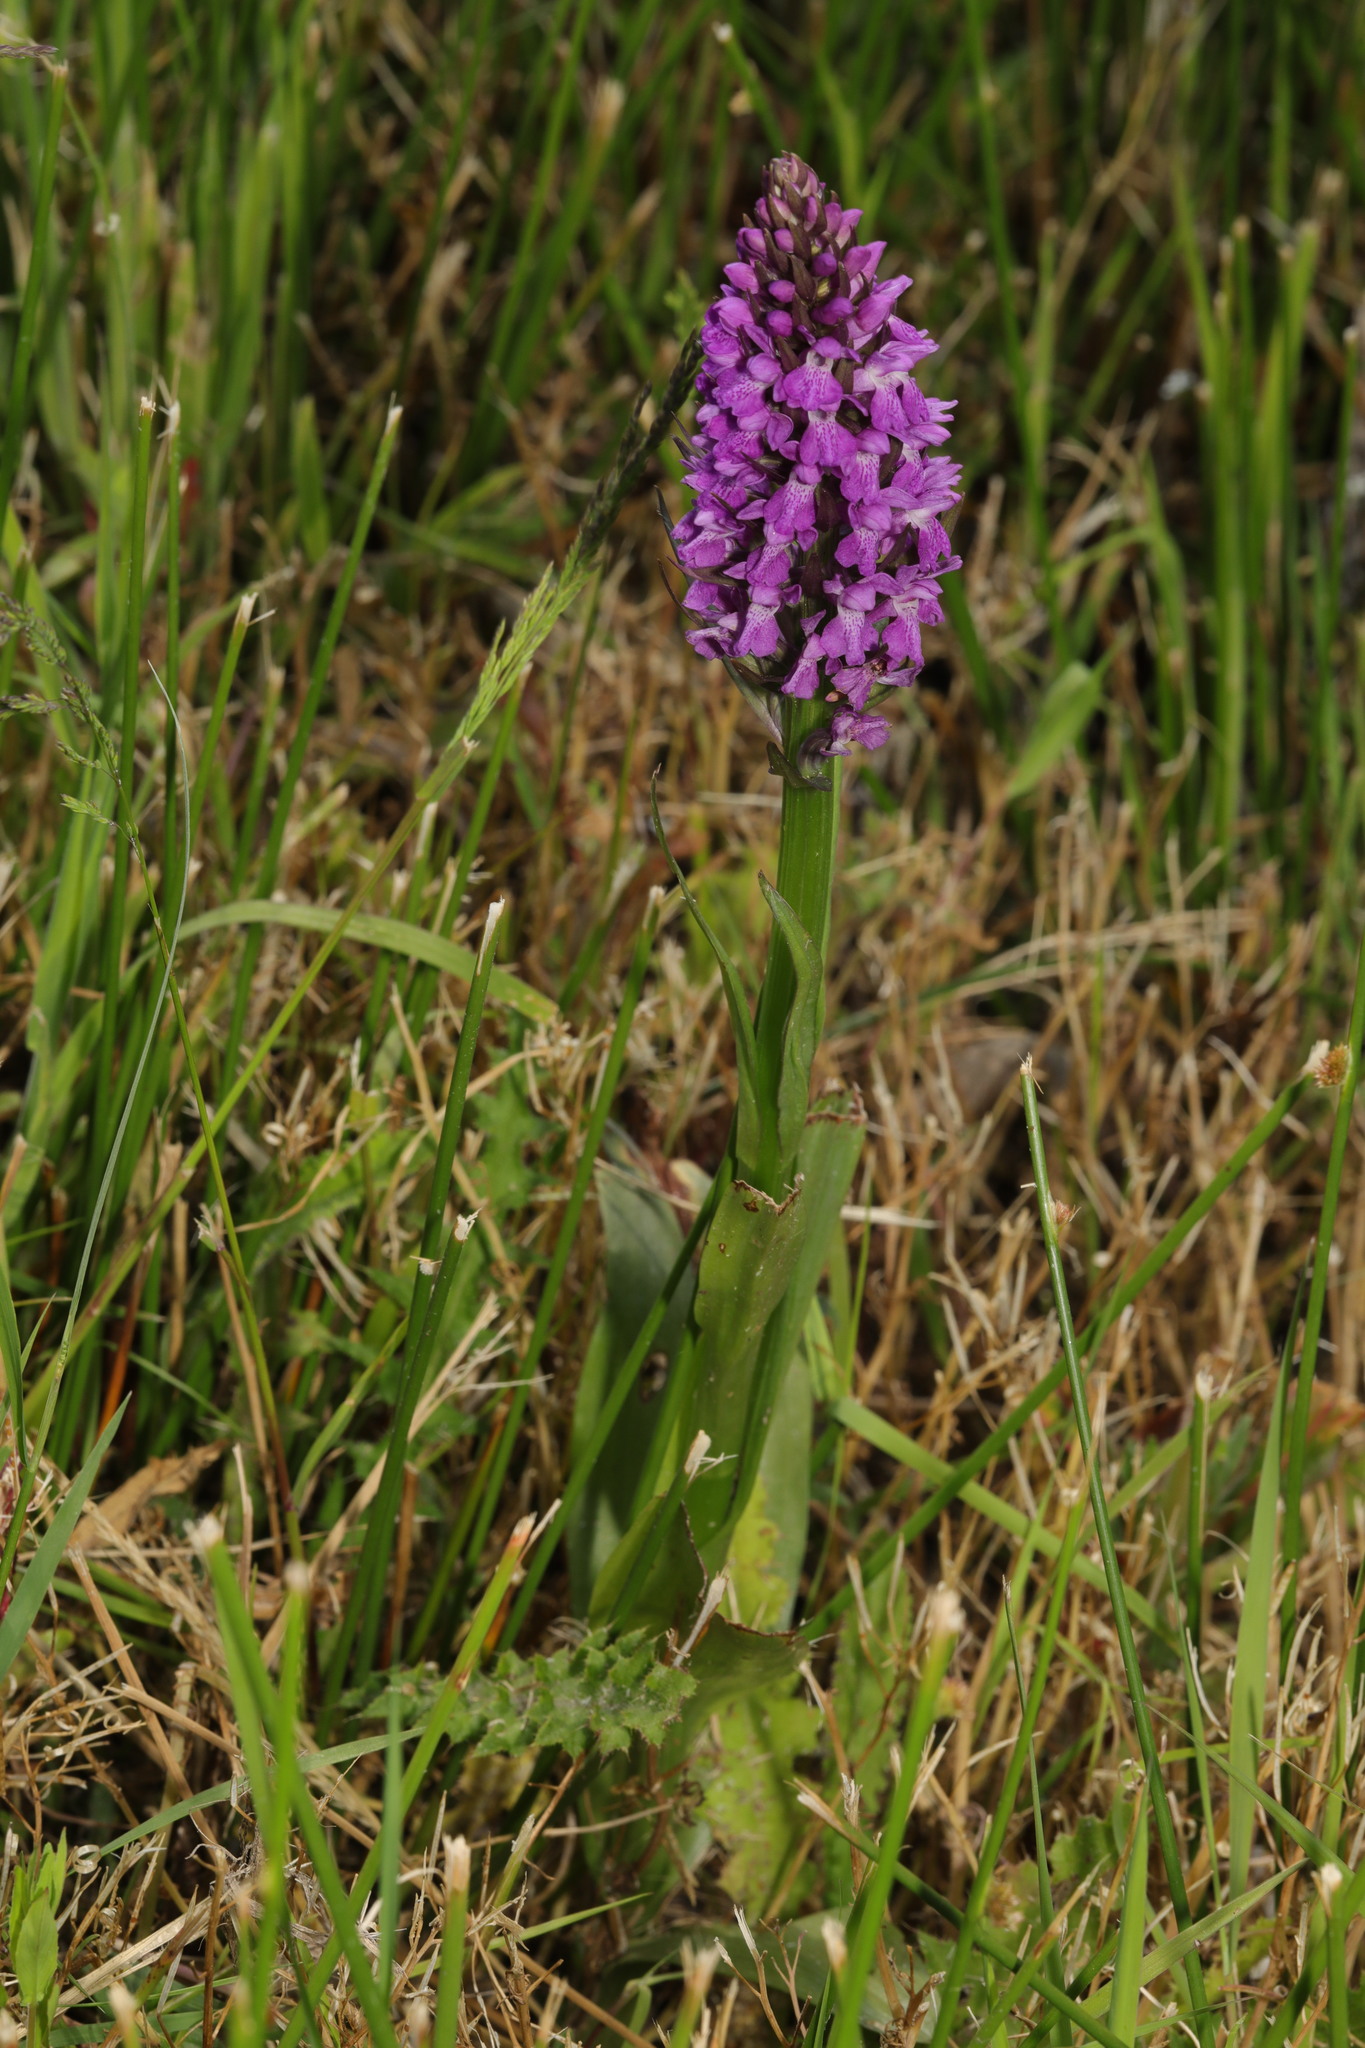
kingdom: Plantae
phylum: Tracheophyta
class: Liliopsida
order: Asparagales
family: Orchidaceae
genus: Dactylorhiza
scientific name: Dactylorhiza majalis
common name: Marsh orchid
